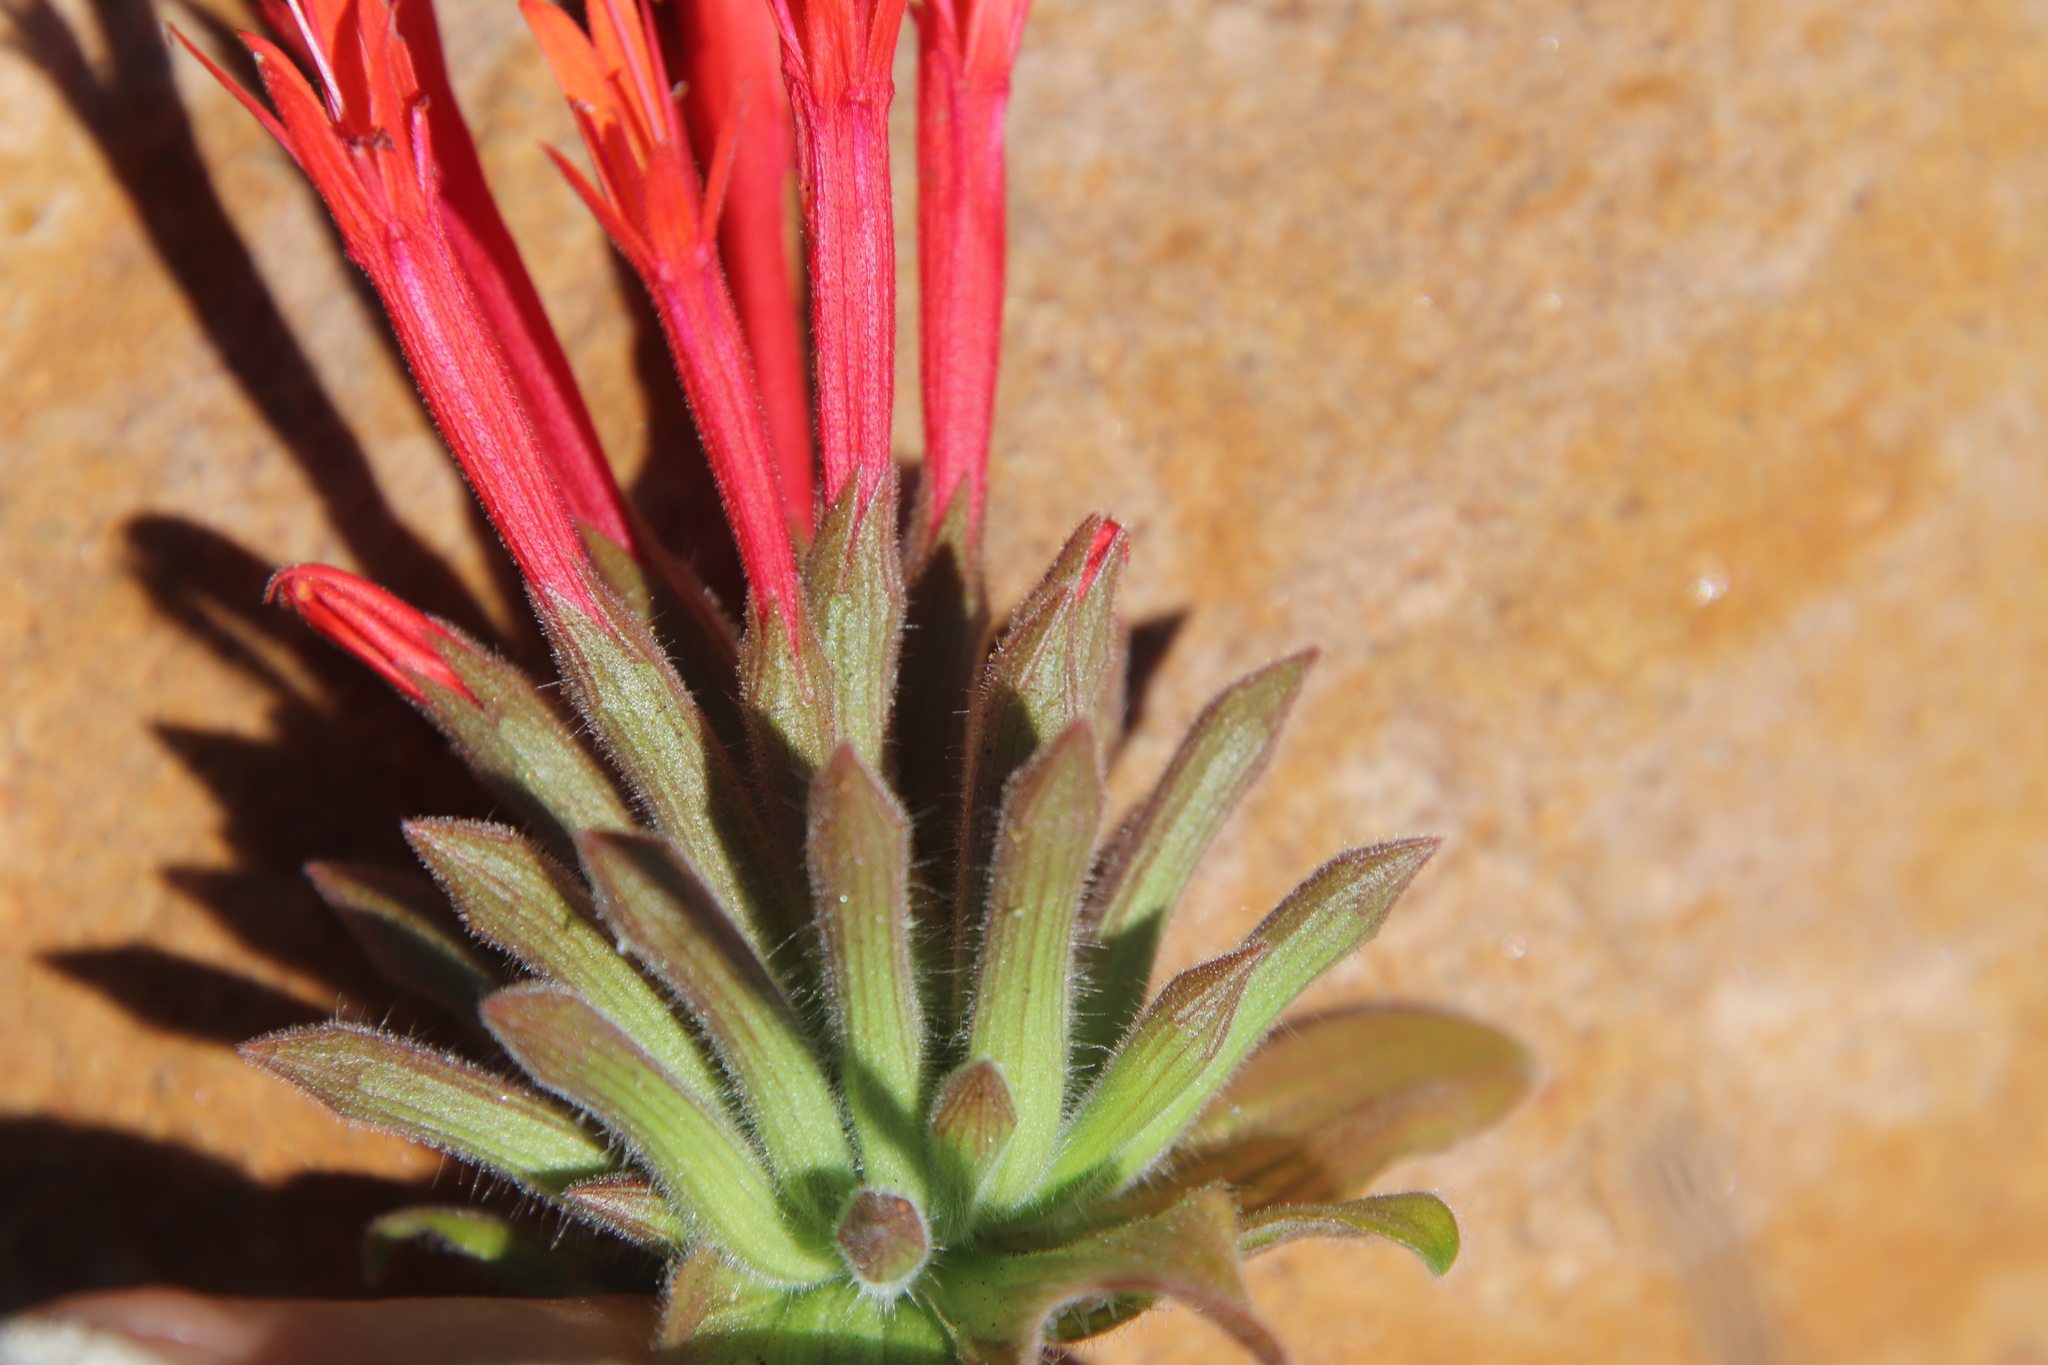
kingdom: Plantae
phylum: Tracheophyta
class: Magnoliopsida
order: Lamiales
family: Lamiaceae
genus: Monardella
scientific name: Monardella macrantha
